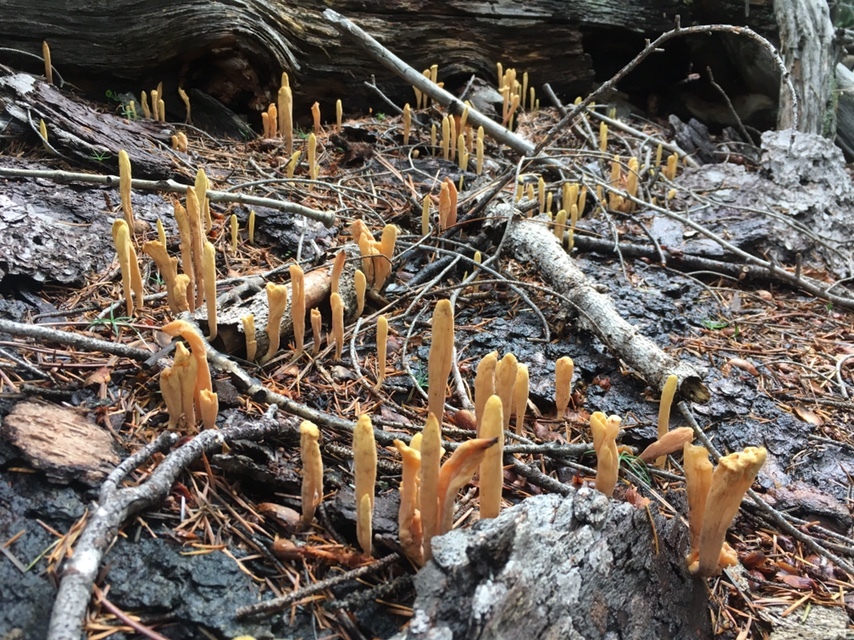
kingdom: Fungi
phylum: Basidiomycota
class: Agaricomycetes
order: Gomphales
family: Clavariadelphaceae
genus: Clavariadelphus
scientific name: Clavariadelphus sachalinensis
